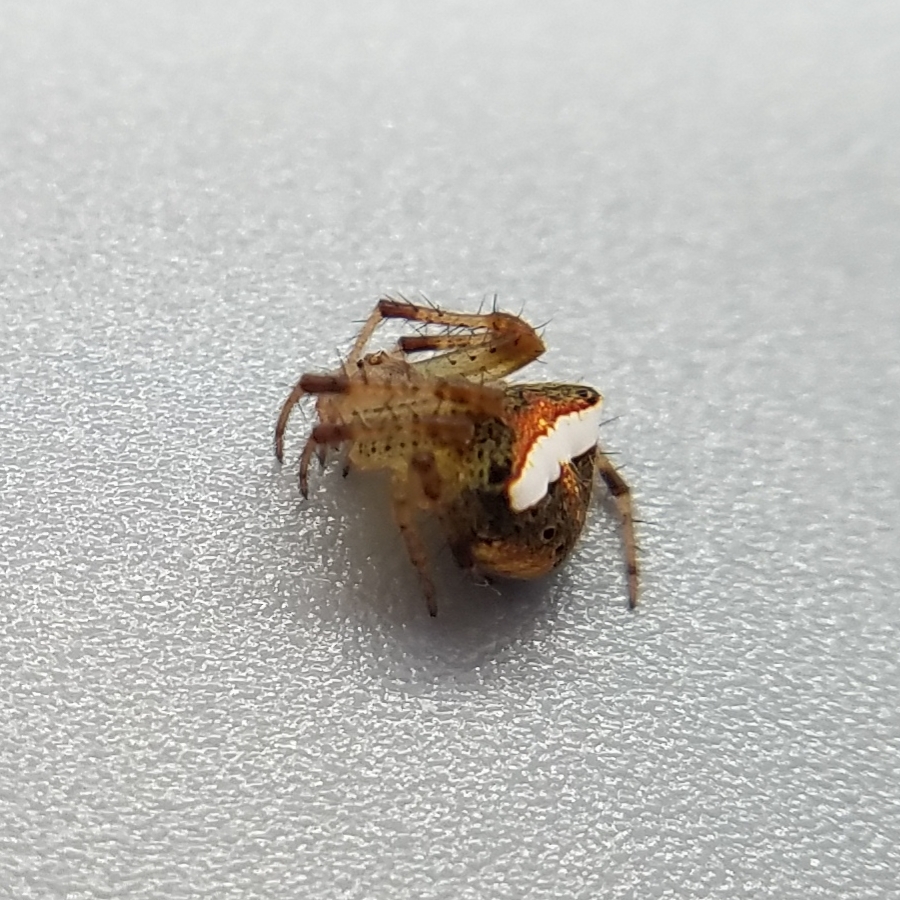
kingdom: Animalia
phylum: Arthropoda
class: Arachnida
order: Araneae
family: Araneidae
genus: Araneus
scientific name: Araneus miniatus
